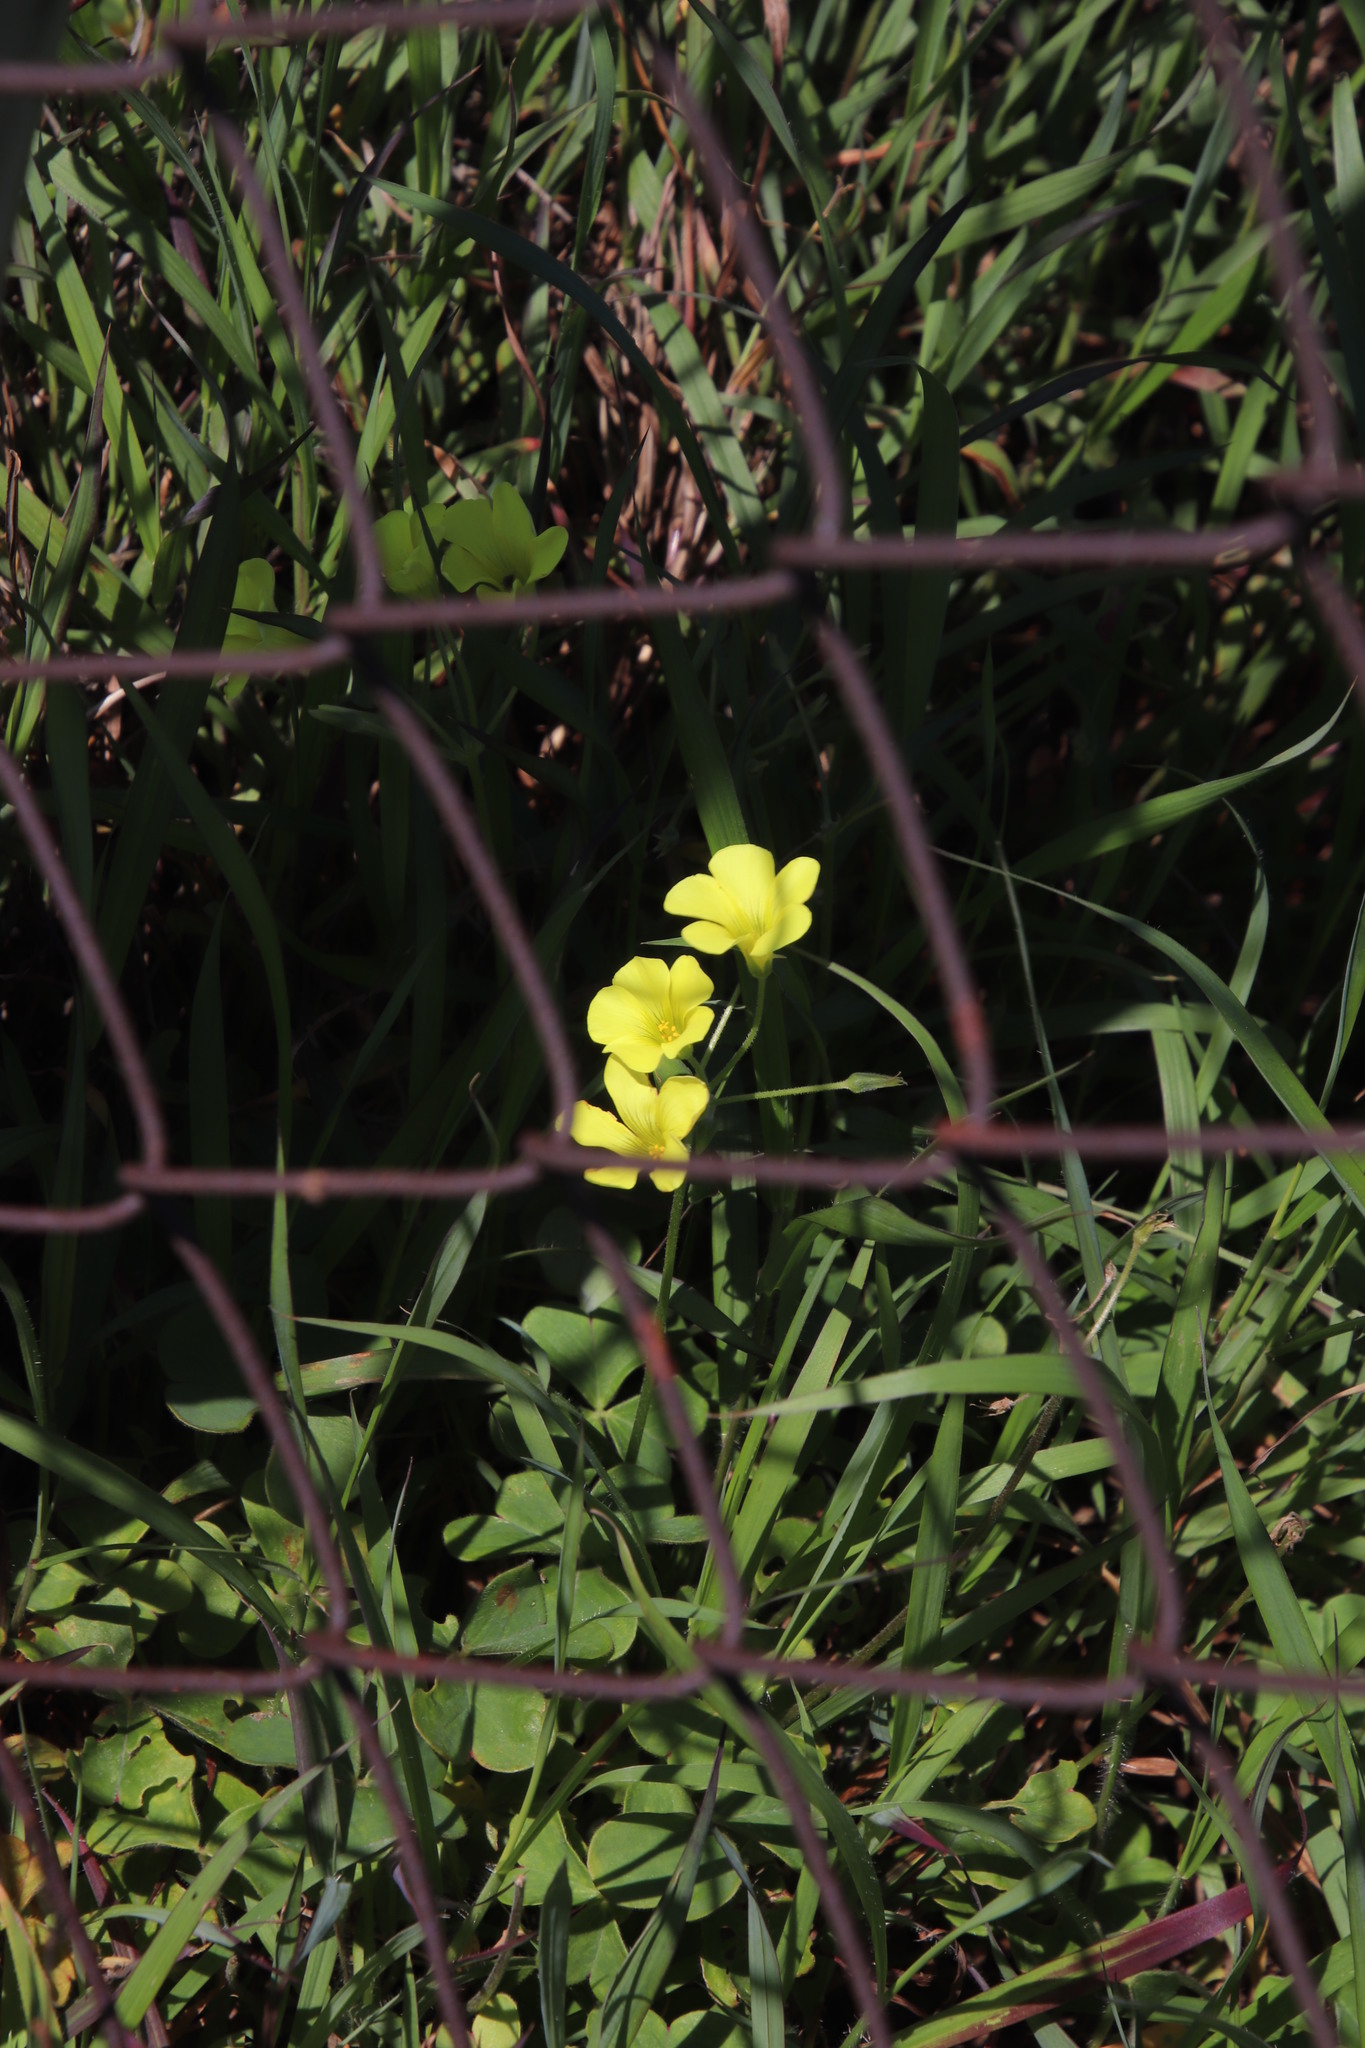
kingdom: Plantae
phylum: Tracheophyta
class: Magnoliopsida
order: Oxalidales
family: Oxalidaceae
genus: Oxalis
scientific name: Oxalis pes-caprae
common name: Bermuda-buttercup
